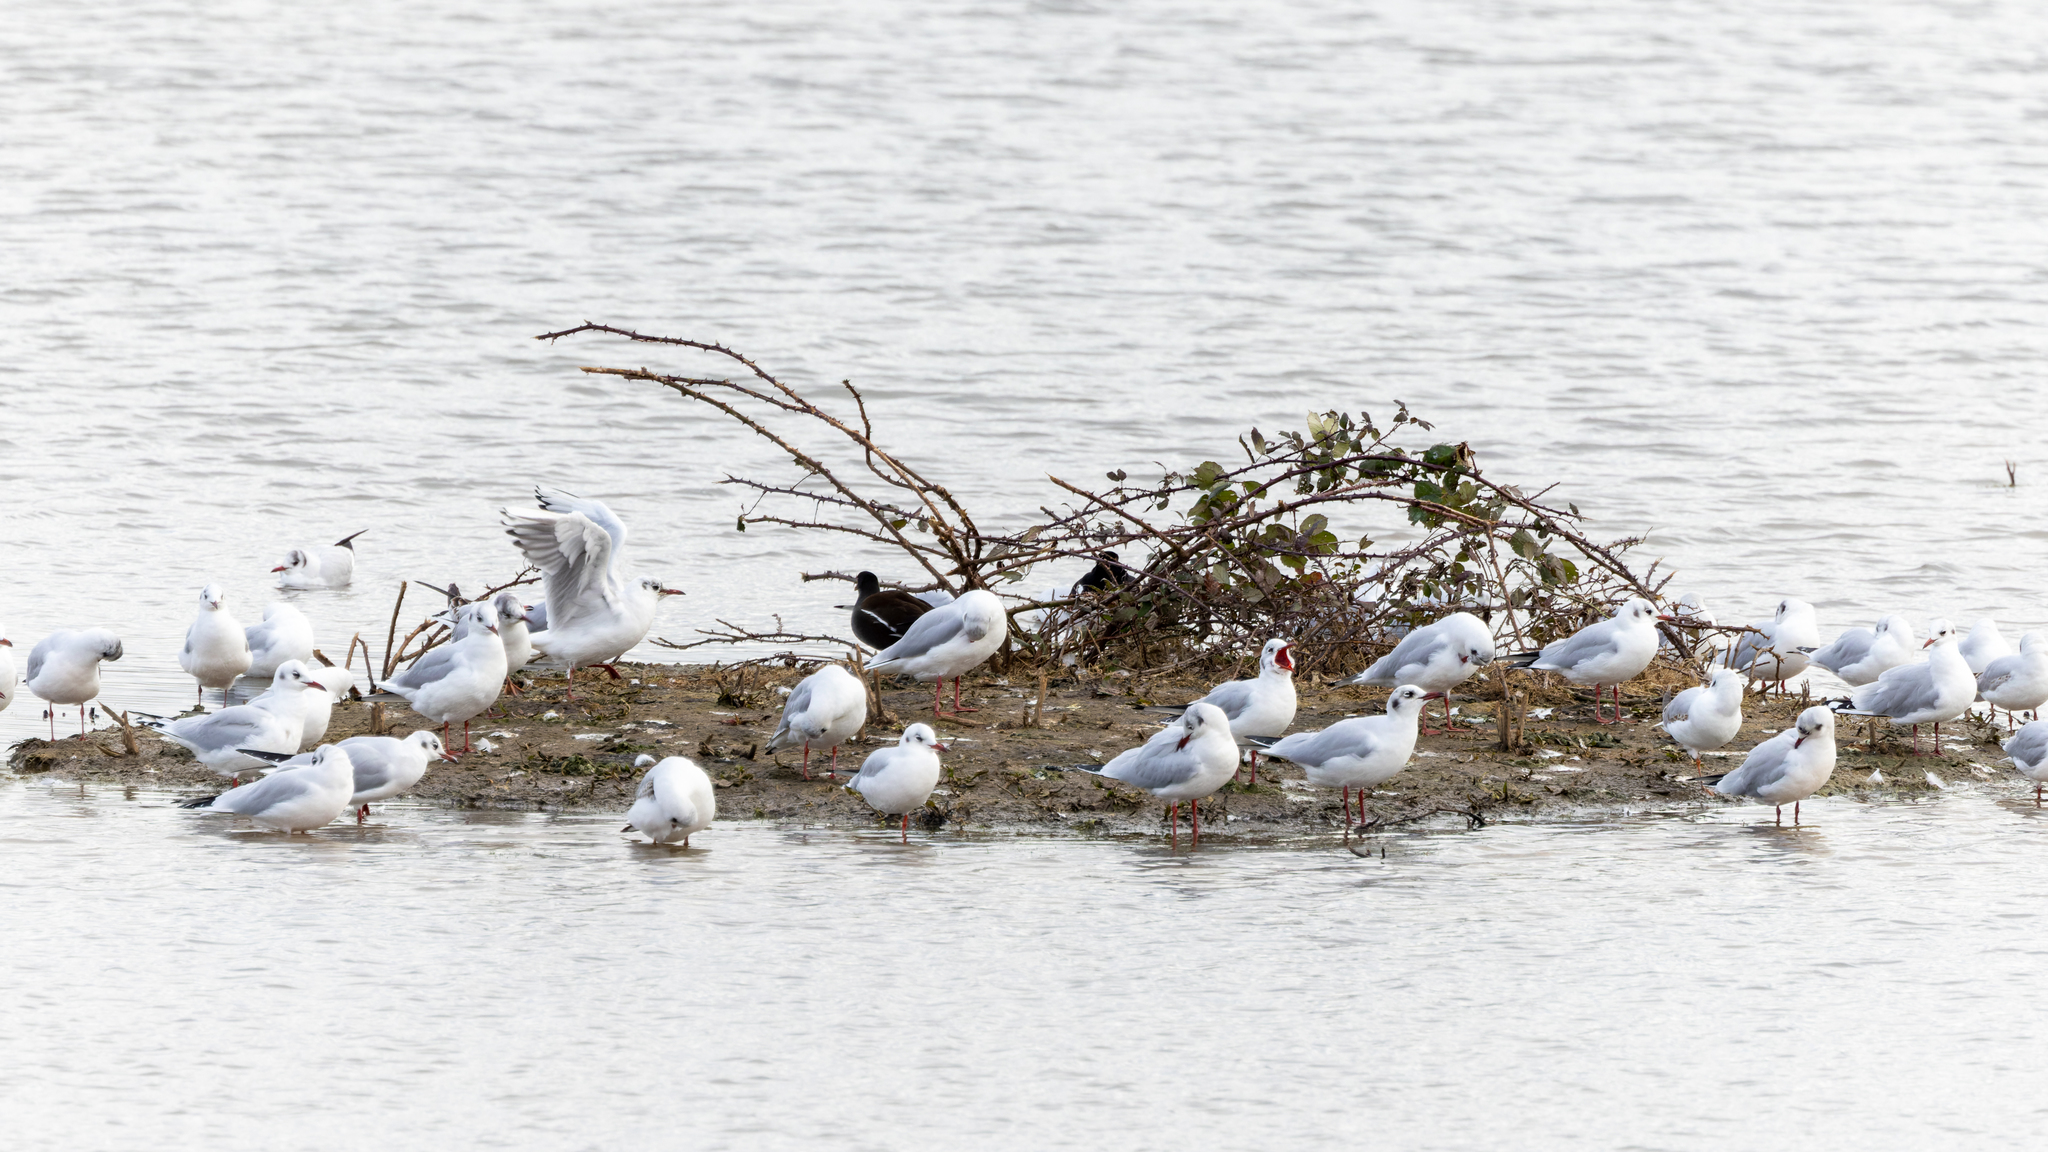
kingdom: Animalia
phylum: Chordata
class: Aves
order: Charadriiformes
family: Laridae
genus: Chroicocephalus
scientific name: Chroicocephalus ridibundus
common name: Black-headed gull
